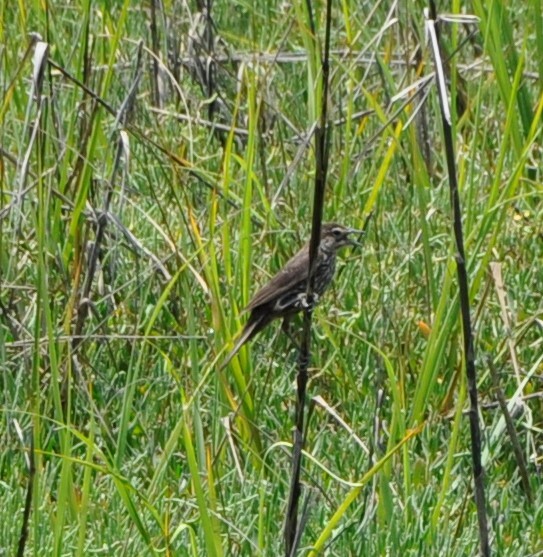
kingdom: Animalia
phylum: Chordata
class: Aves
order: Passeriformes
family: Icteridae
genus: Agelaius
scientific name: Agelaius phoeniceus
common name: Red-winged blackbird
